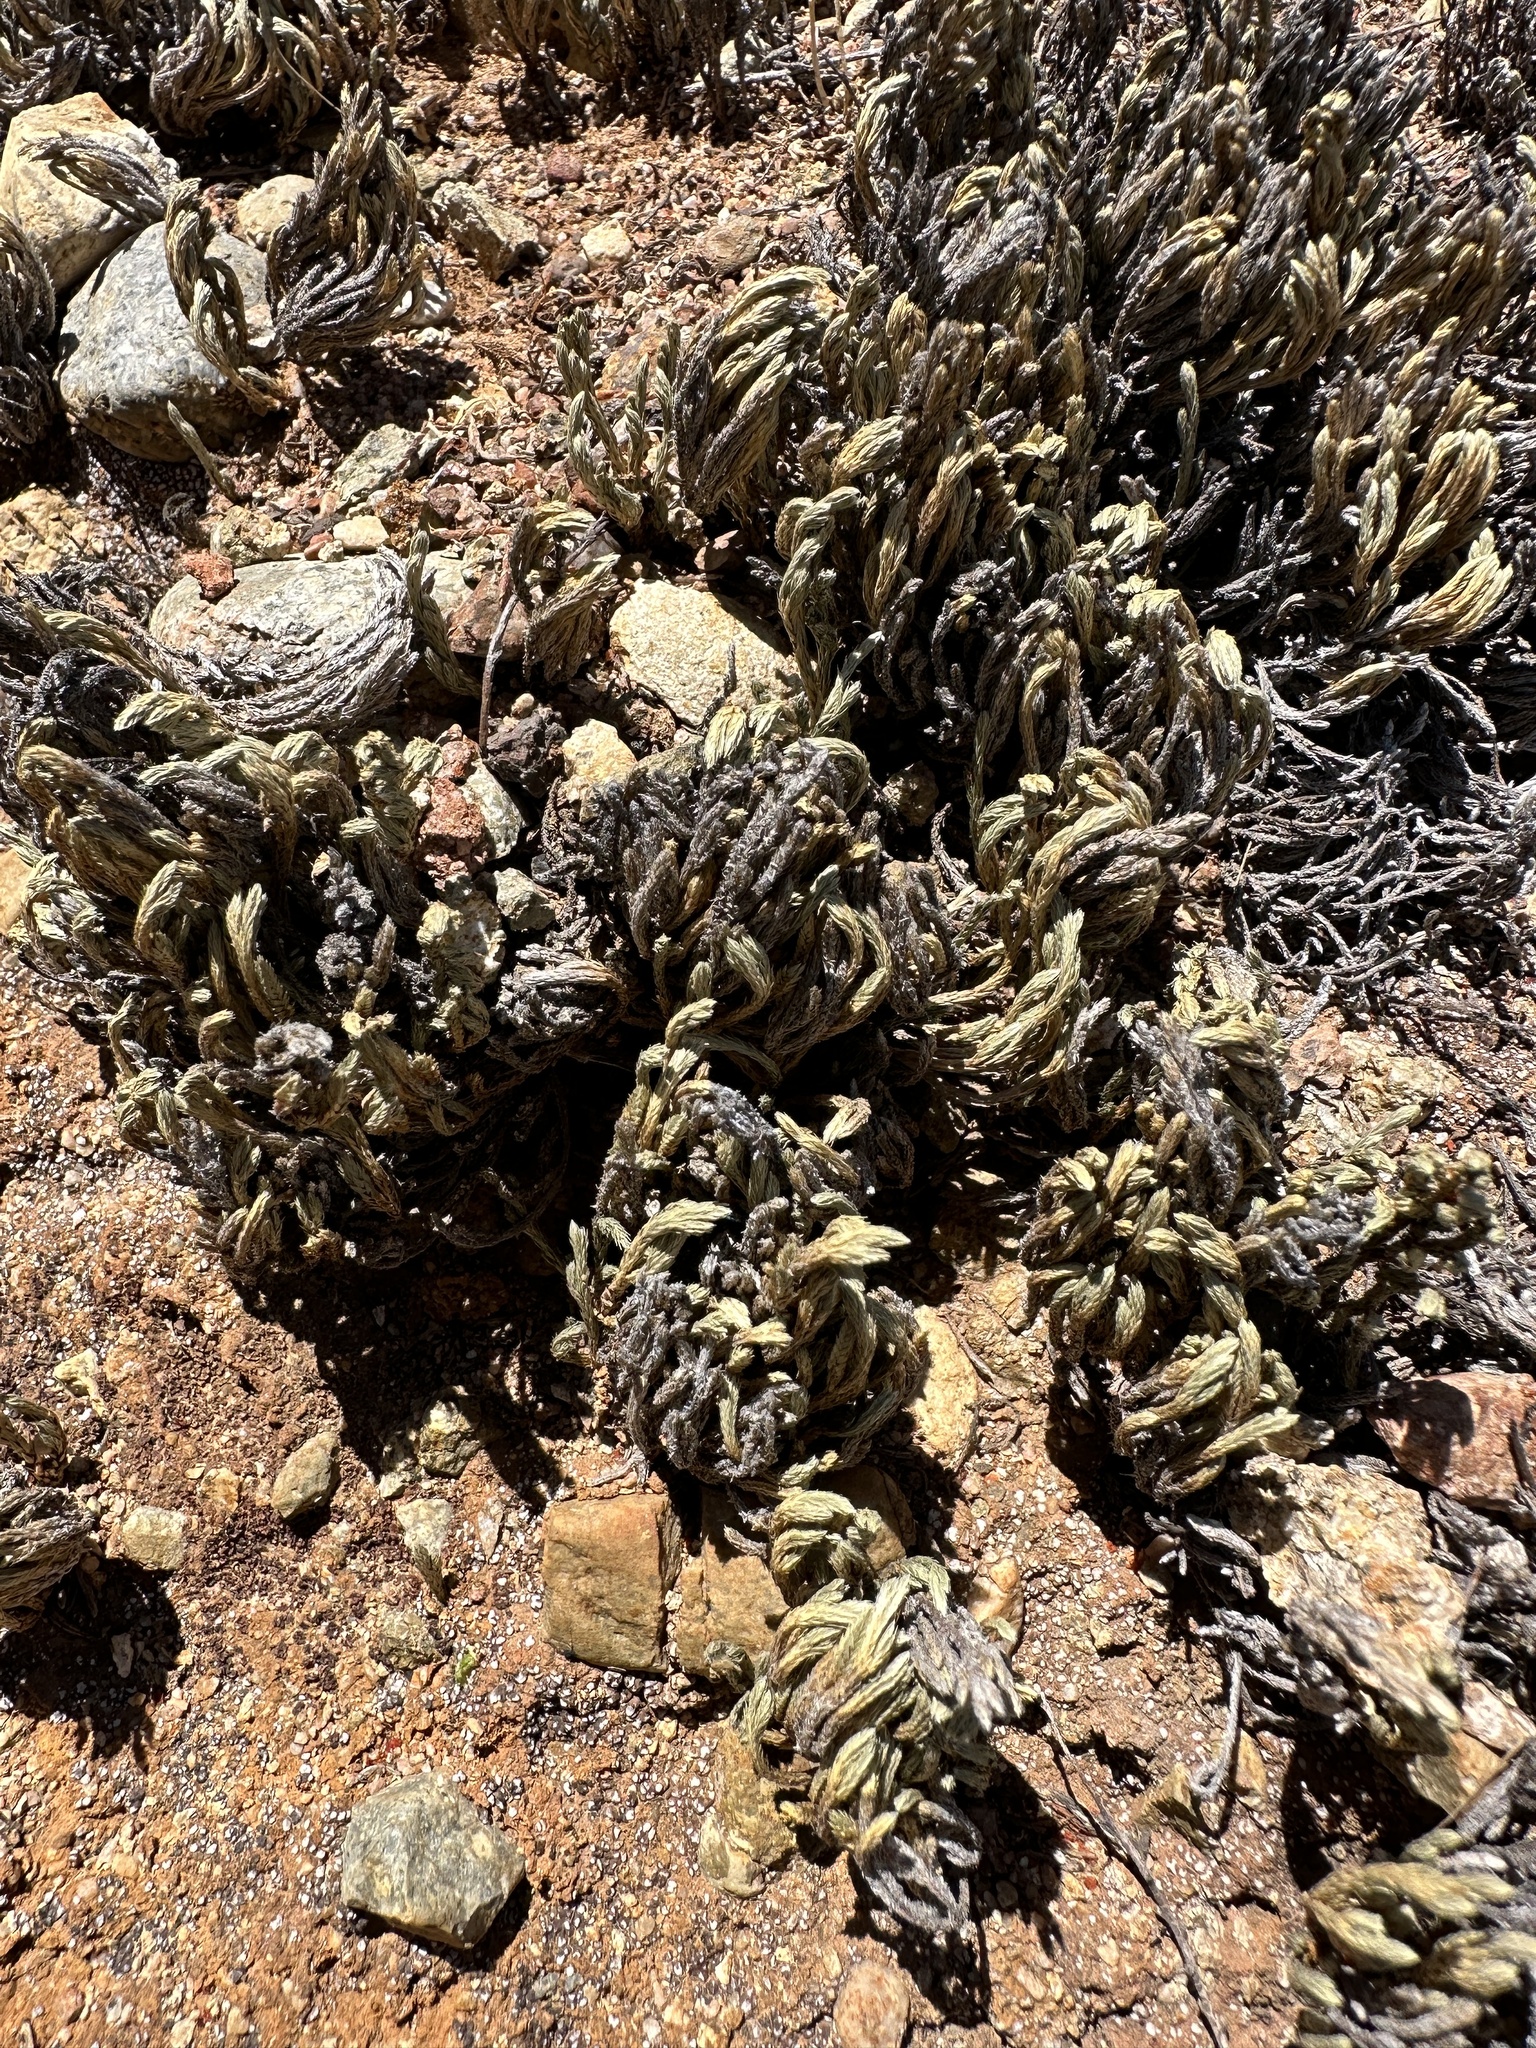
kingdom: Plantae
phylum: Tracheophyta
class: Lycopodiopsida
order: Selaginellales
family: Selaginellaceae
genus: Selaginella
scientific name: Selaginella bigelovii
